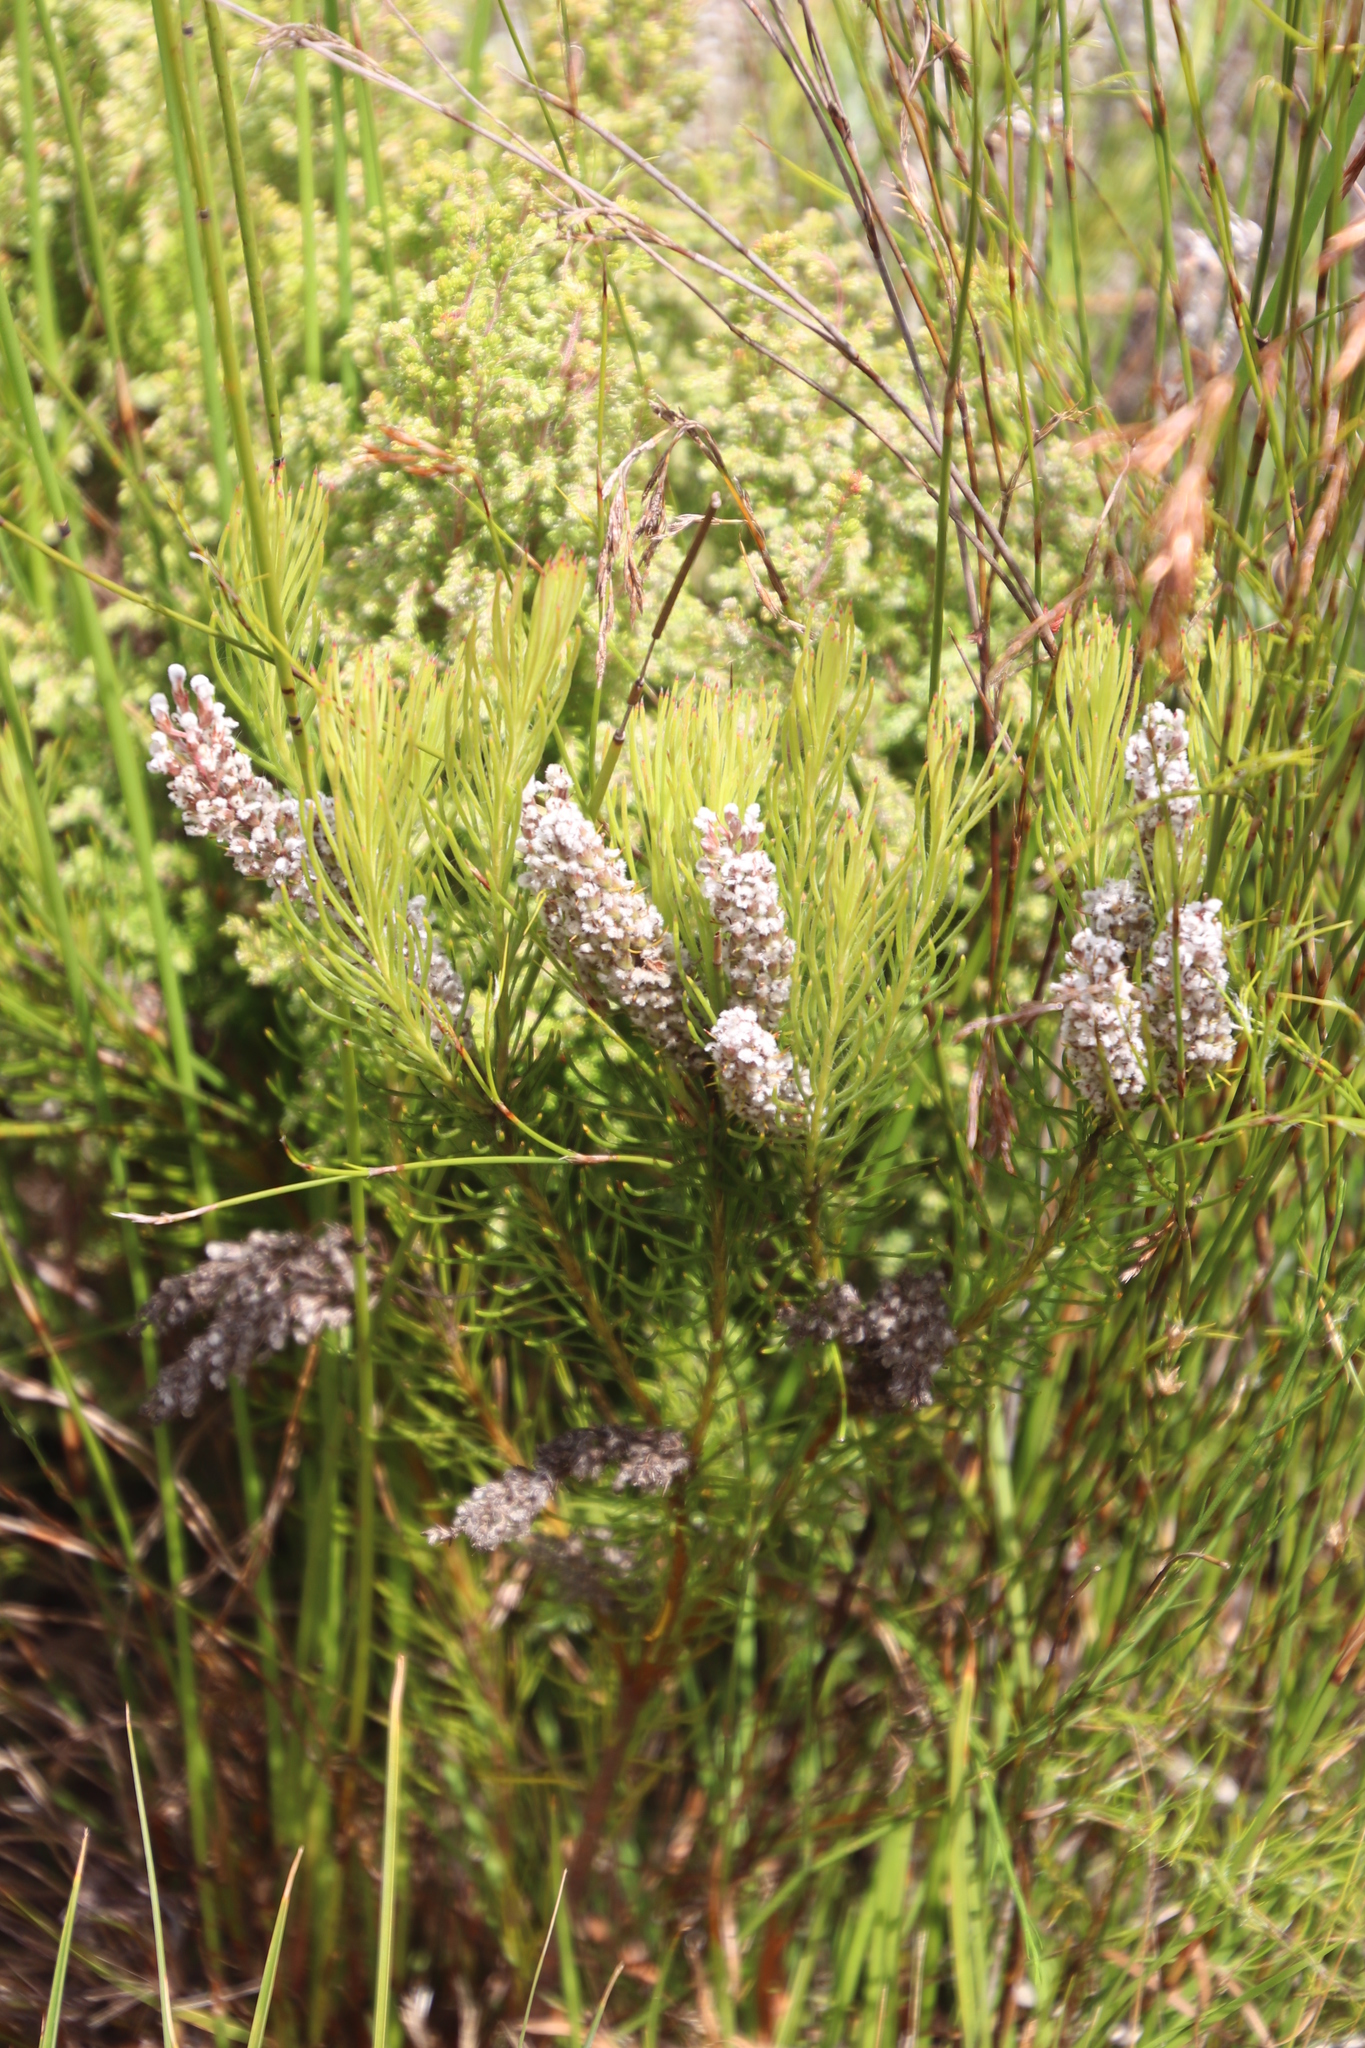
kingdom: Plantae
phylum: Tracheophyta
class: Magnoliopsida
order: Proteales
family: Proteaceae
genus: Spatalla
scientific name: Spatalla curvifolia
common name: White-stalked spoon
